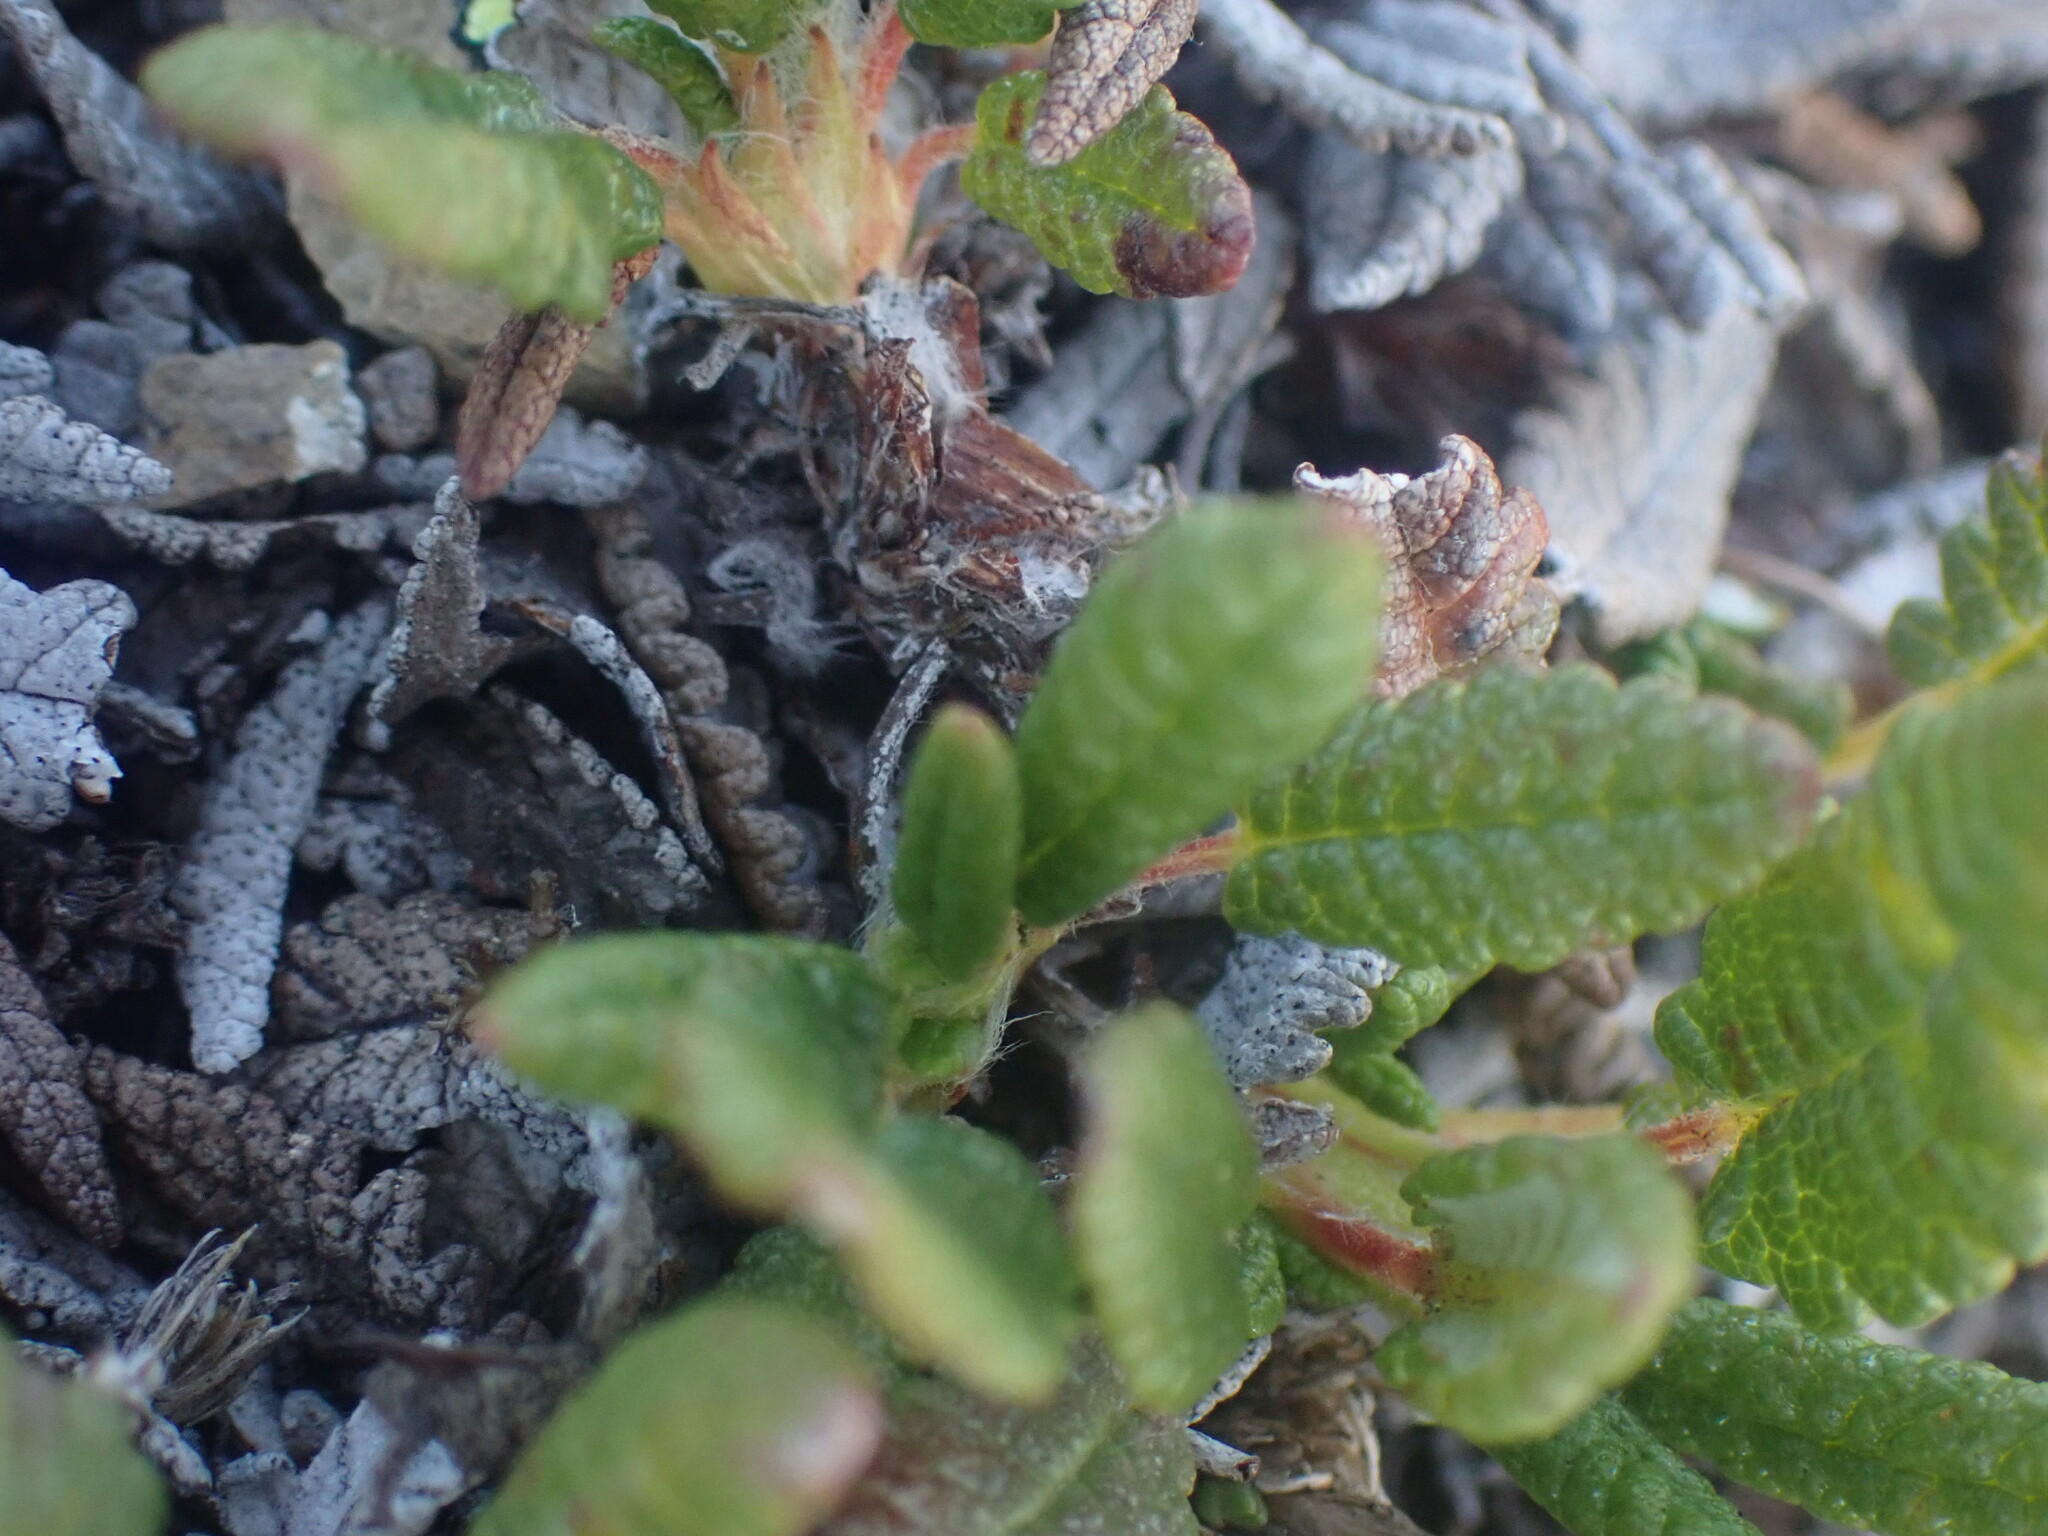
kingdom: Plantae
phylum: Tracheophyta
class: Magnoliopsida
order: Rosales
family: Rosaceae
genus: Dryas
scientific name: Dryas octopetala
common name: Eight-petal mountain-avens
